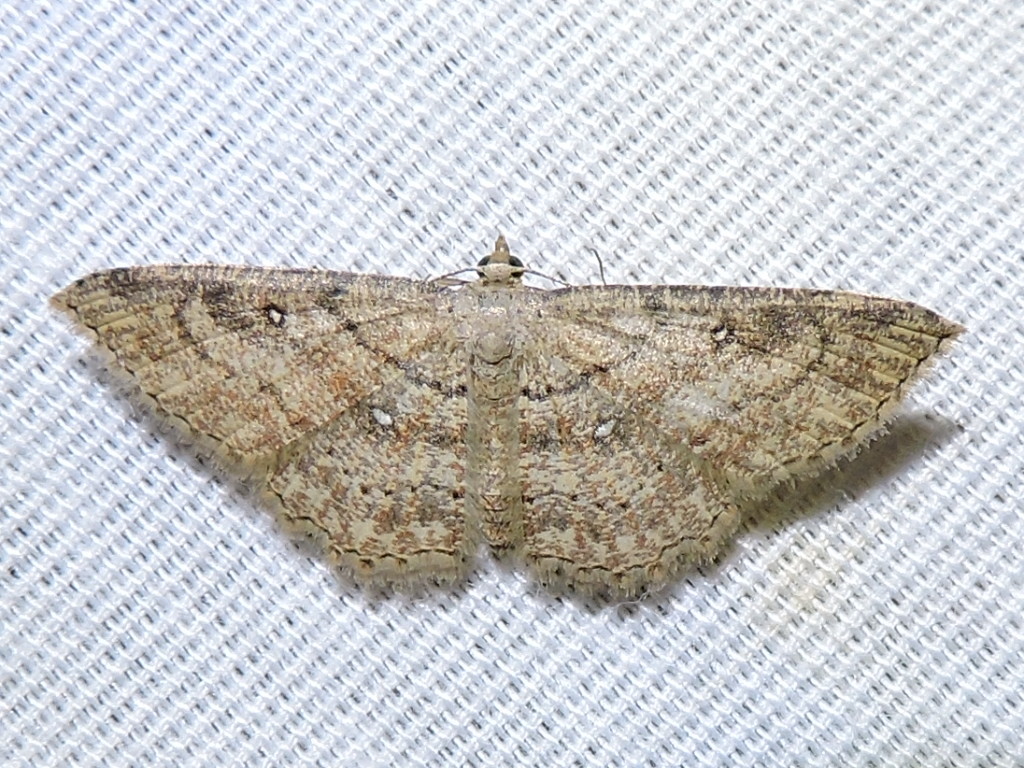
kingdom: Animalia
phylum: Arthropoda
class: Insecta
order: Lepidoptera
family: Geometridae
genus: Cyclophora
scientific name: Cyclophora nanaria
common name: Cankerworm
